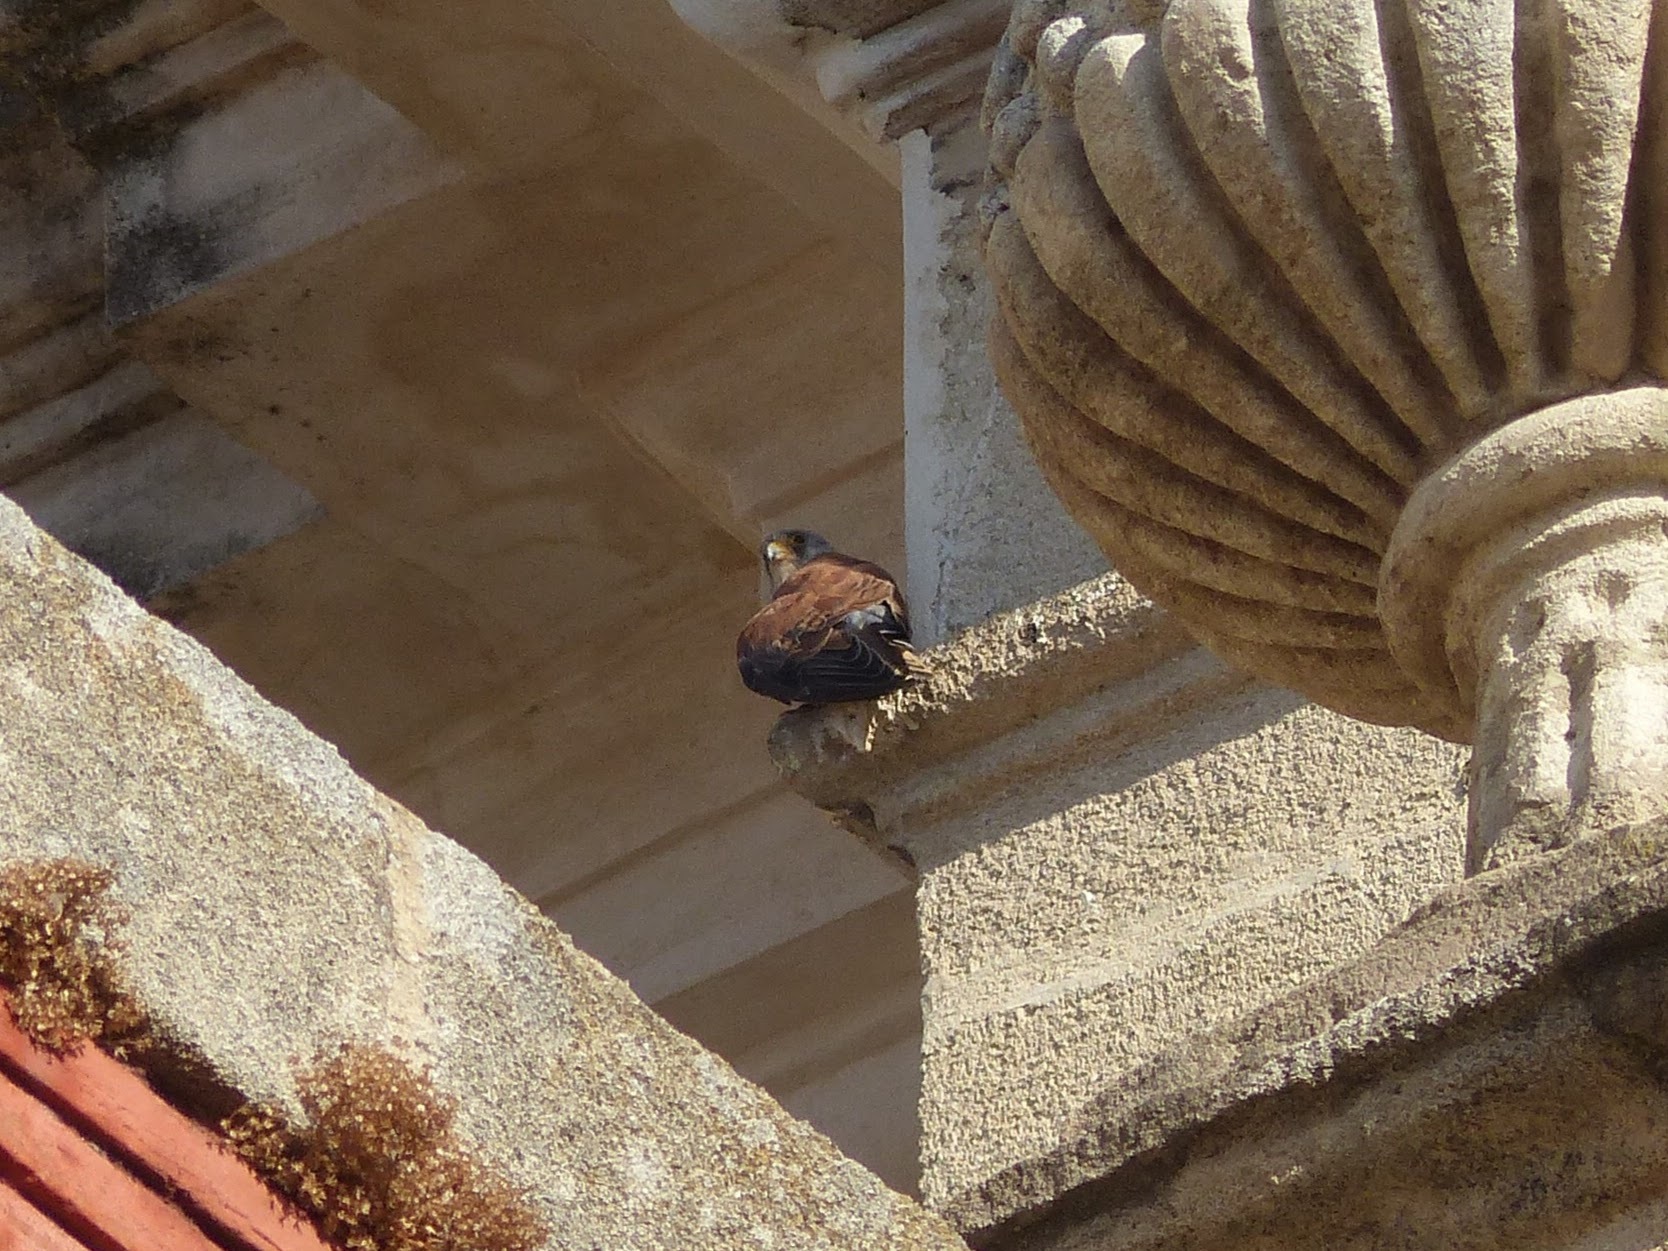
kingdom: Animalia
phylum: Chordata
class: Aves
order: Falconiformes
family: Falconidae
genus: Falco
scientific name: Falco naumanni
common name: Lesser kestrel
